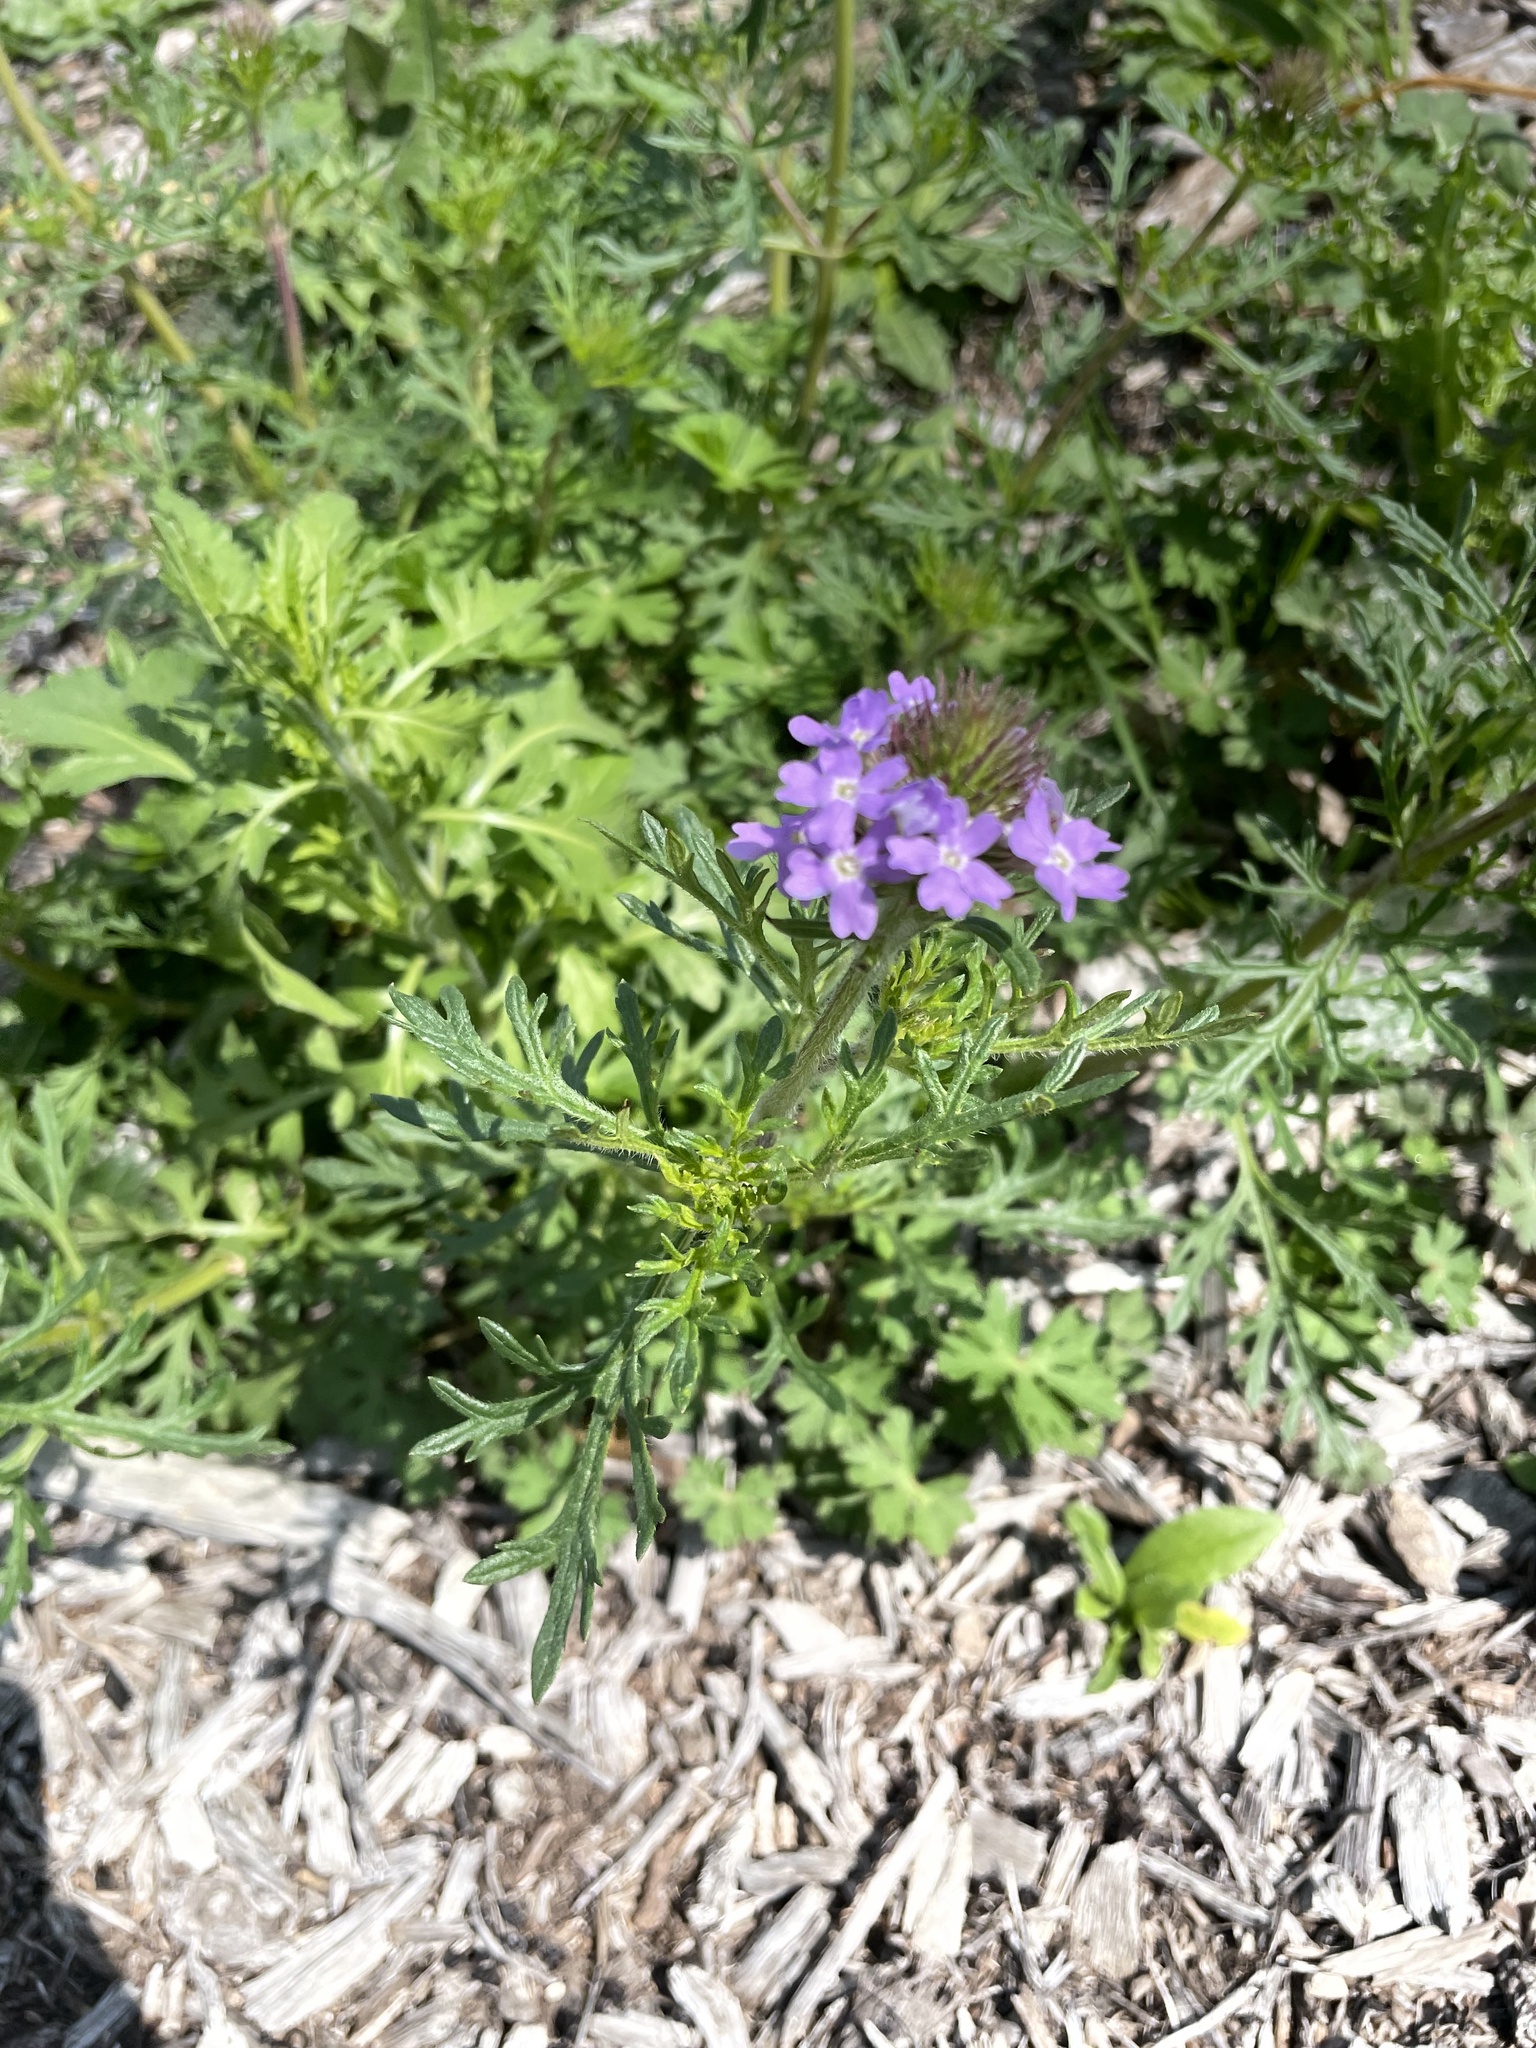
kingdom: Plantae
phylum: Tracheophyta
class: Magnoliopsida
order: Lamiales
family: Verbenaceae
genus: Verbena
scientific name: Verbena bipinnatifida
